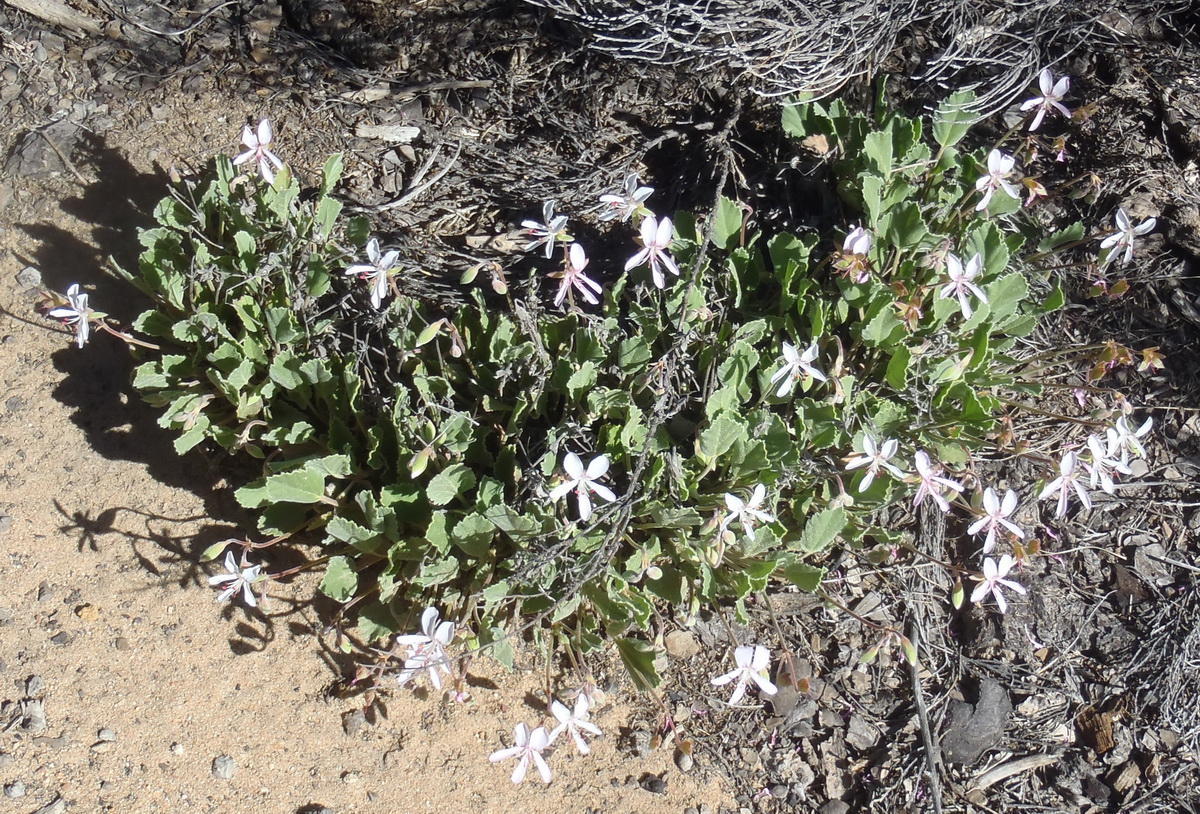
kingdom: Plantae
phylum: Tracheophyta
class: Magnoliopsida
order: Geraniales
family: Geraniaceae
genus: Pelargonium
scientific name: Pelargonium ovale
